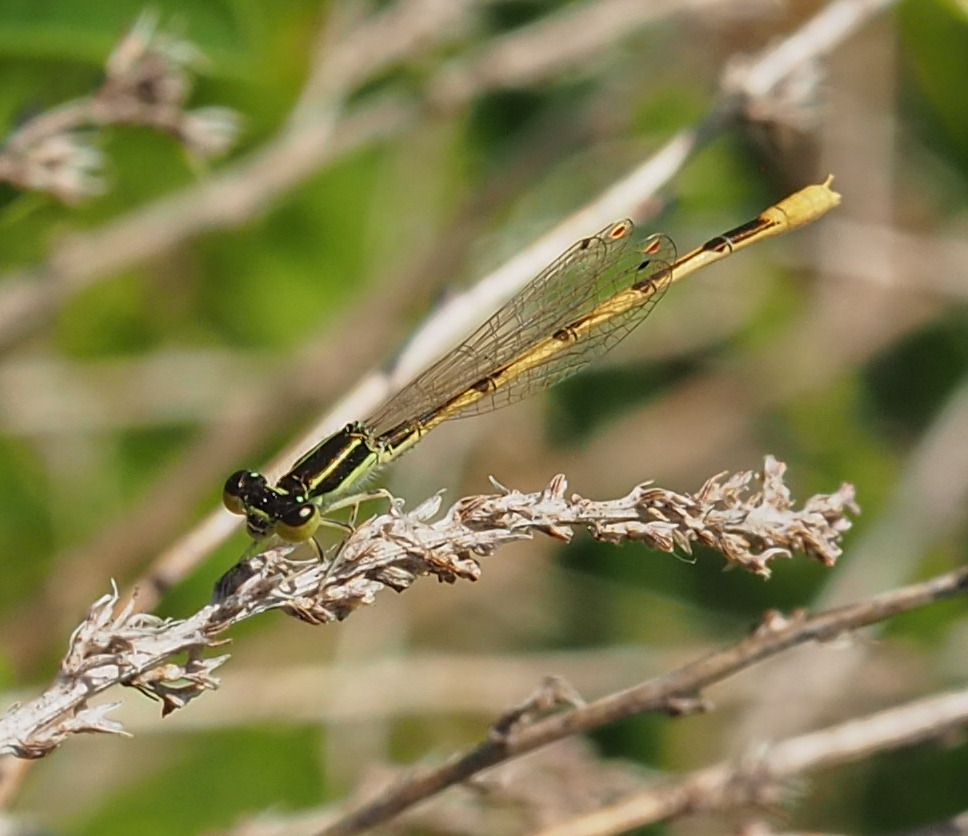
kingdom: Animalia
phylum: Arthropoda
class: Insecta
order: Odonata
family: Coenagrionidae
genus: Ischnura
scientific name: Ischnura hastata
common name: Citrine forktail
